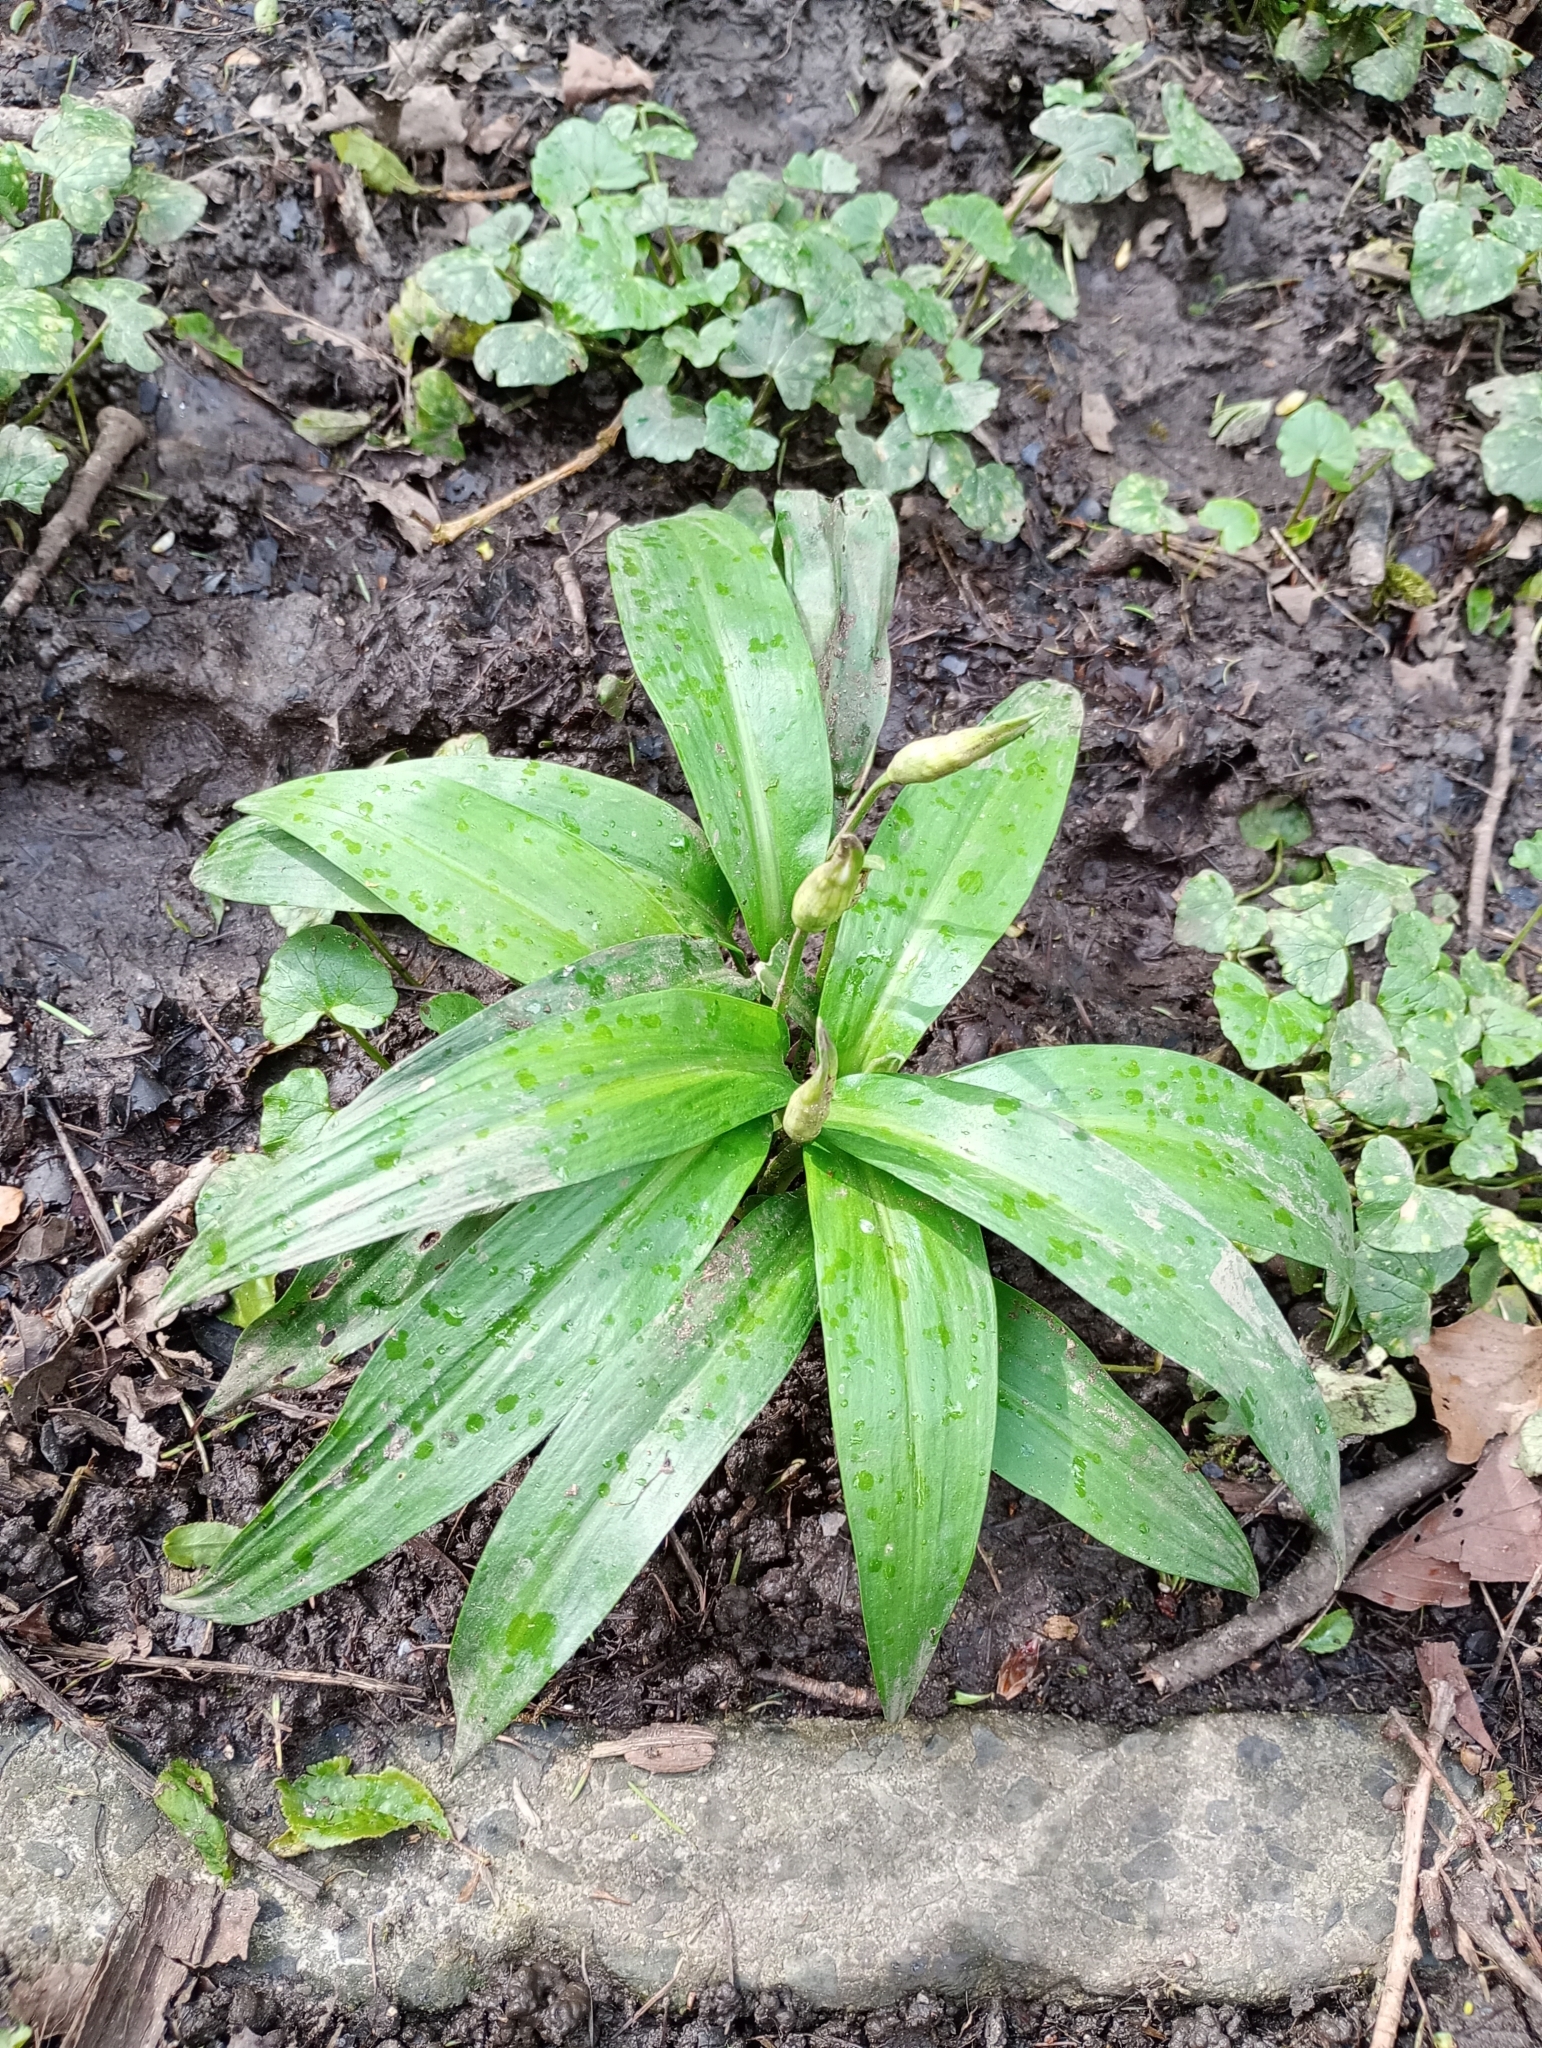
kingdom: Plantae
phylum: Tracheophyta
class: Liliopsida
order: Asparagales
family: Amaryllidaceae
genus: Allium
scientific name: Allium ursinum
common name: Ramsons
